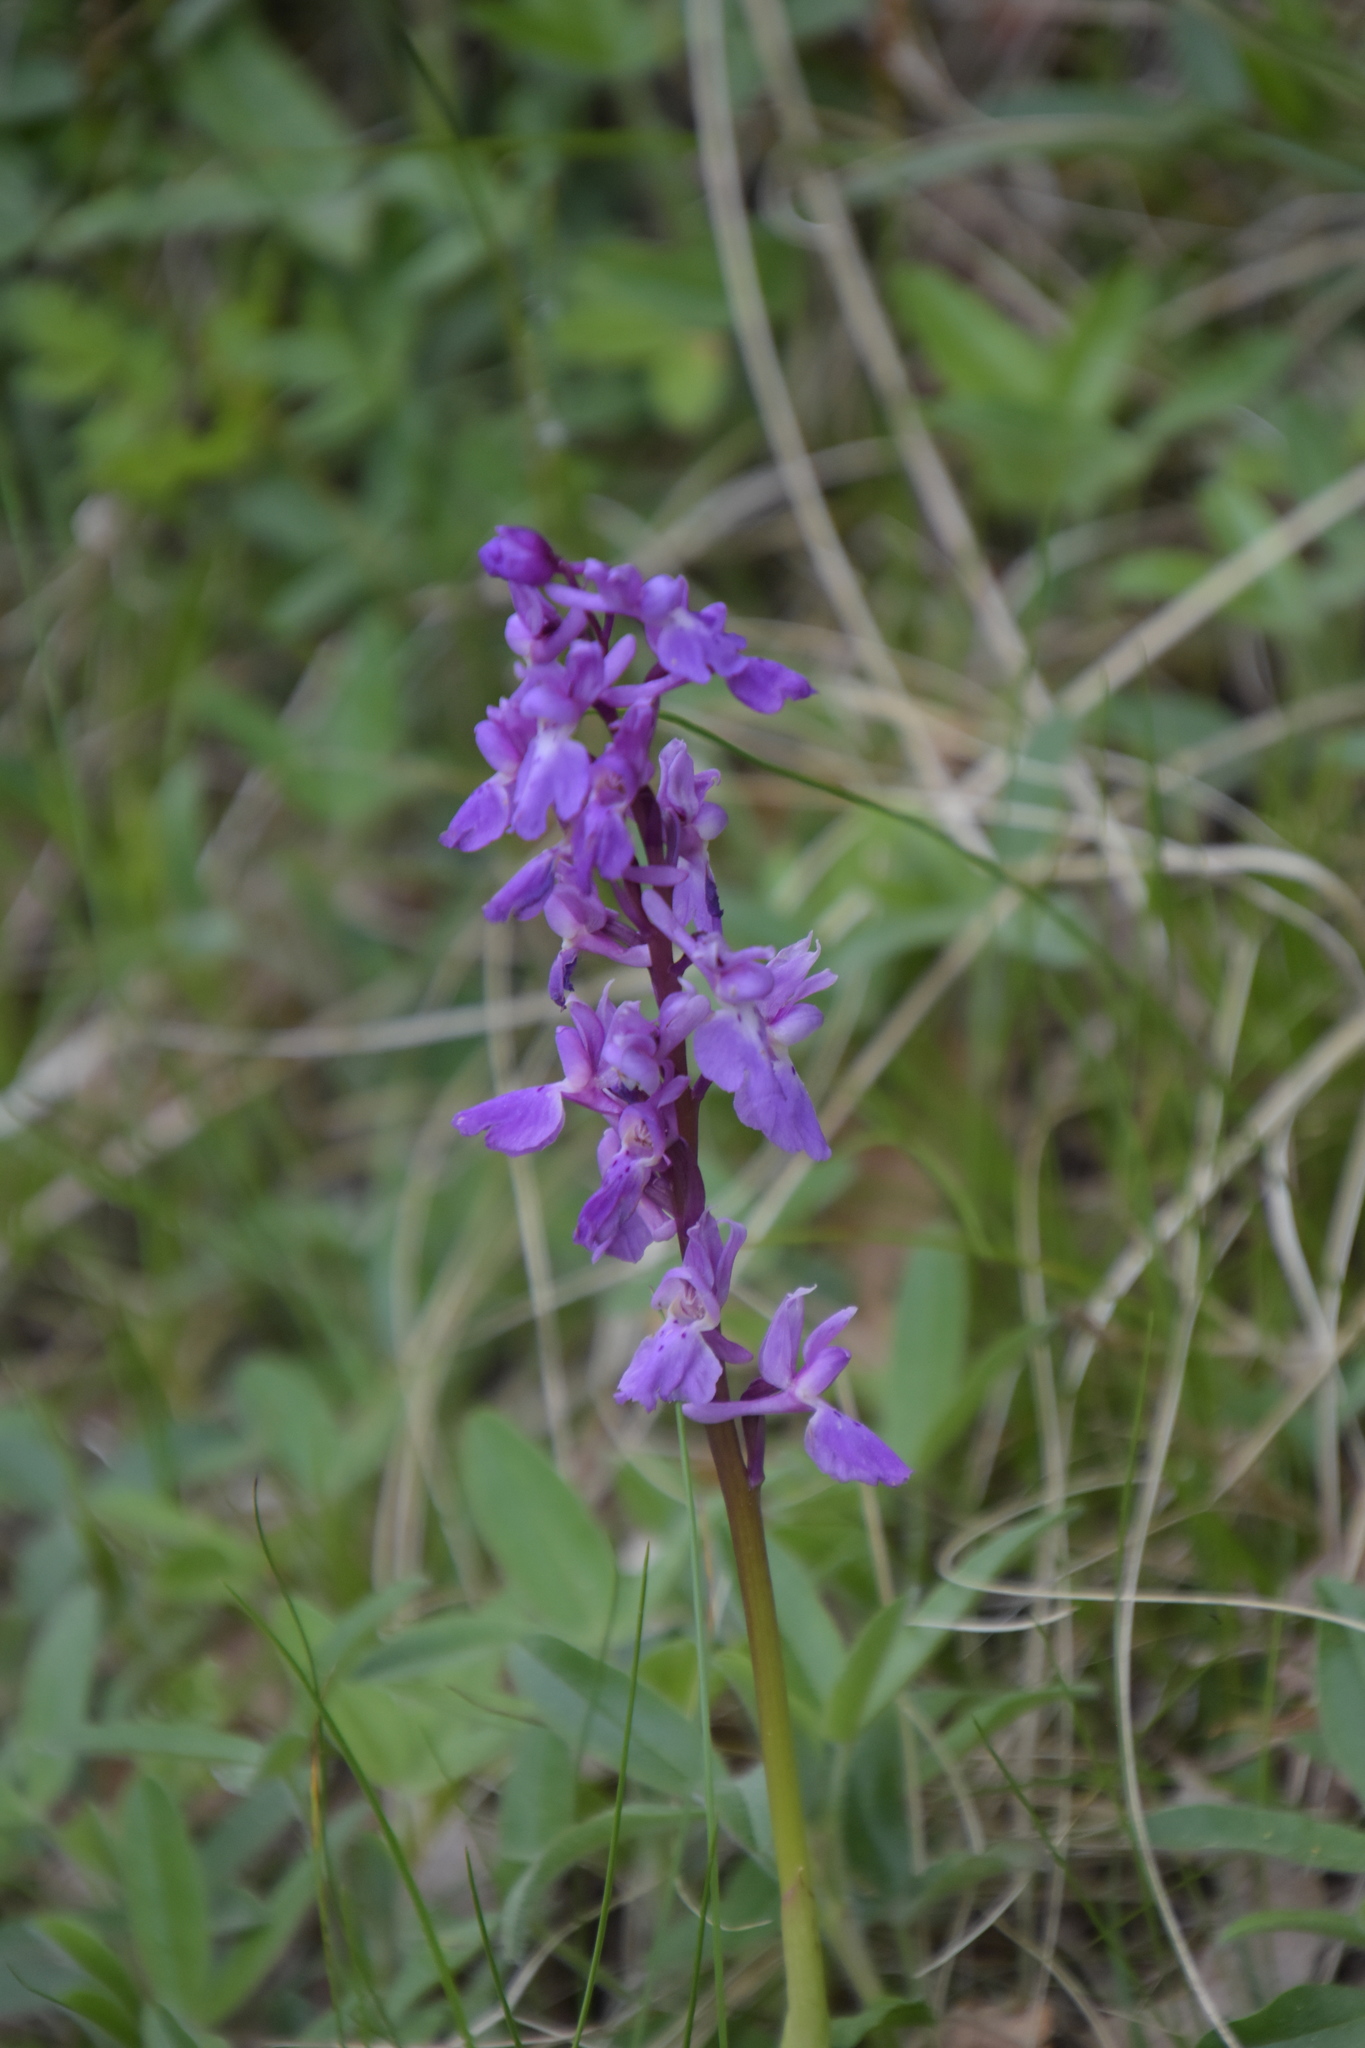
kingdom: Plantae
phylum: Tracheophyta
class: Liliopsida
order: Asparagales
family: Orchidaceae
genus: Orchis
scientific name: Orchis mascula
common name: Early-purple orchid
